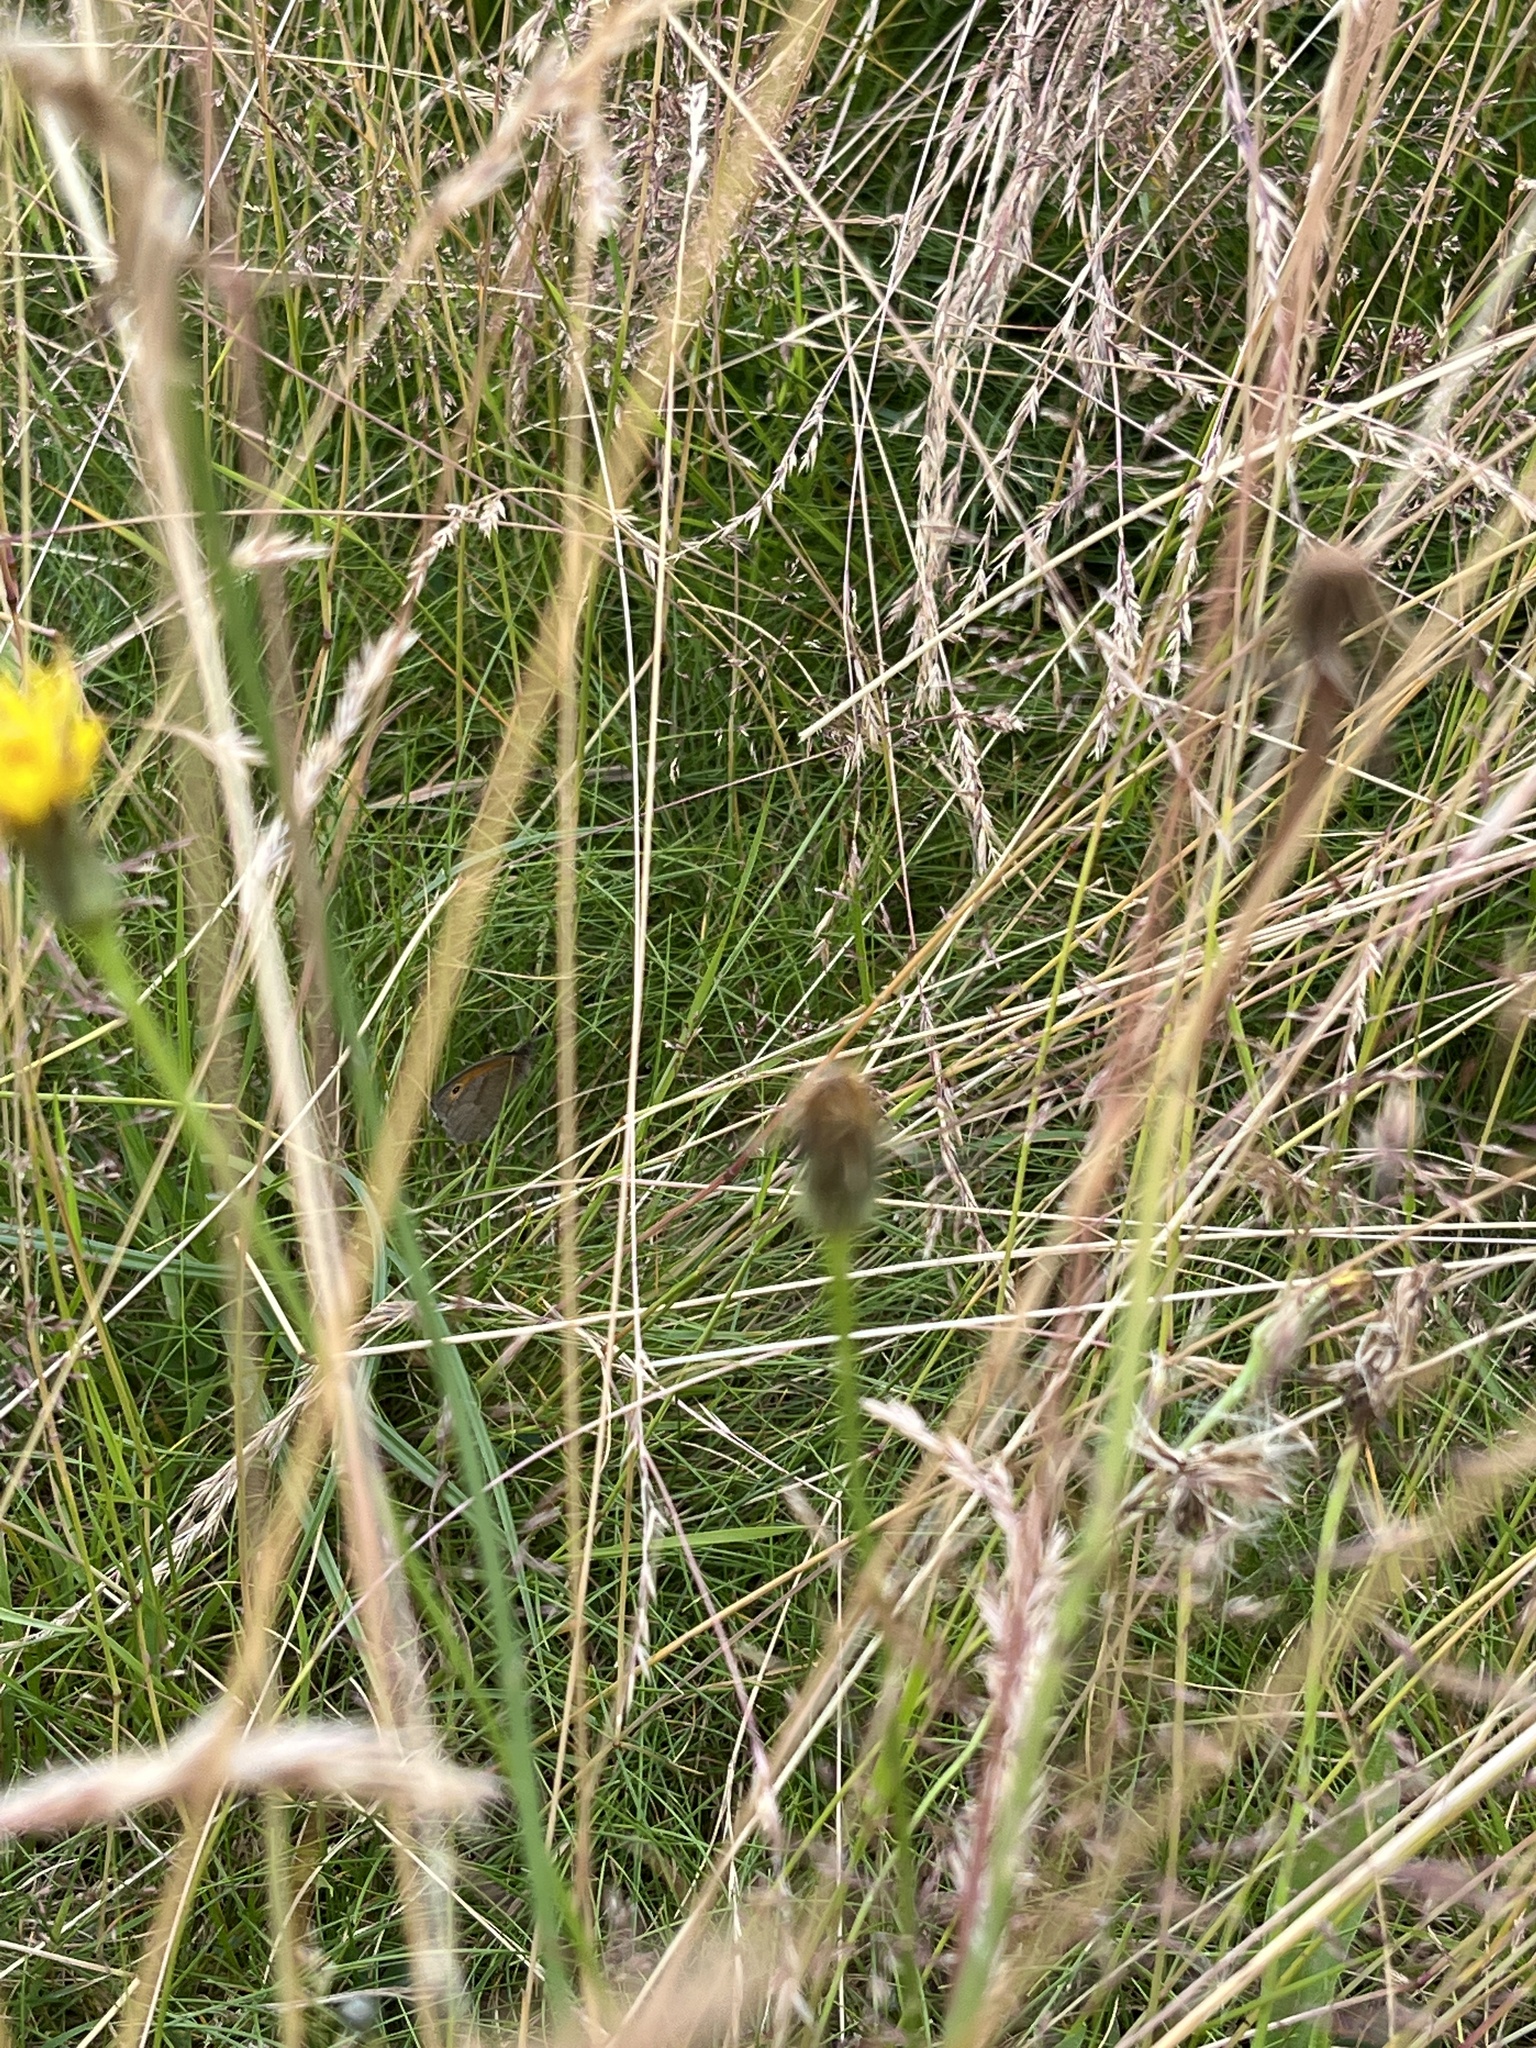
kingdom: Animalia
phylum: Arthropoda
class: Insecta
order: Lepidoptera
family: Nymphalidae
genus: Maniola
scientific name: Maniola jurtina
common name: Meadow brown
